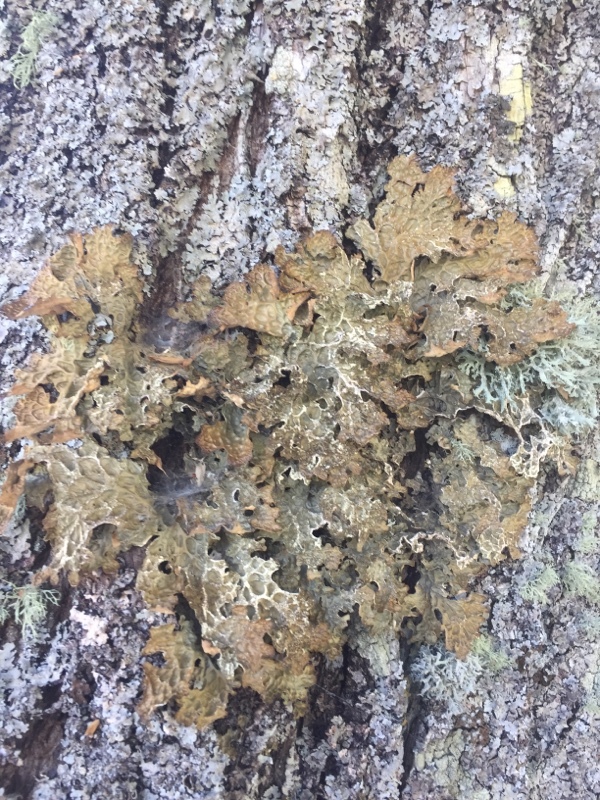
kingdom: Fungi
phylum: Ascomycota
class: Lecanoromycetes
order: Peltigerales
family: Lobariaceae
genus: Lobaria
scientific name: Lobaria pulmonaria
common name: Lungwort
